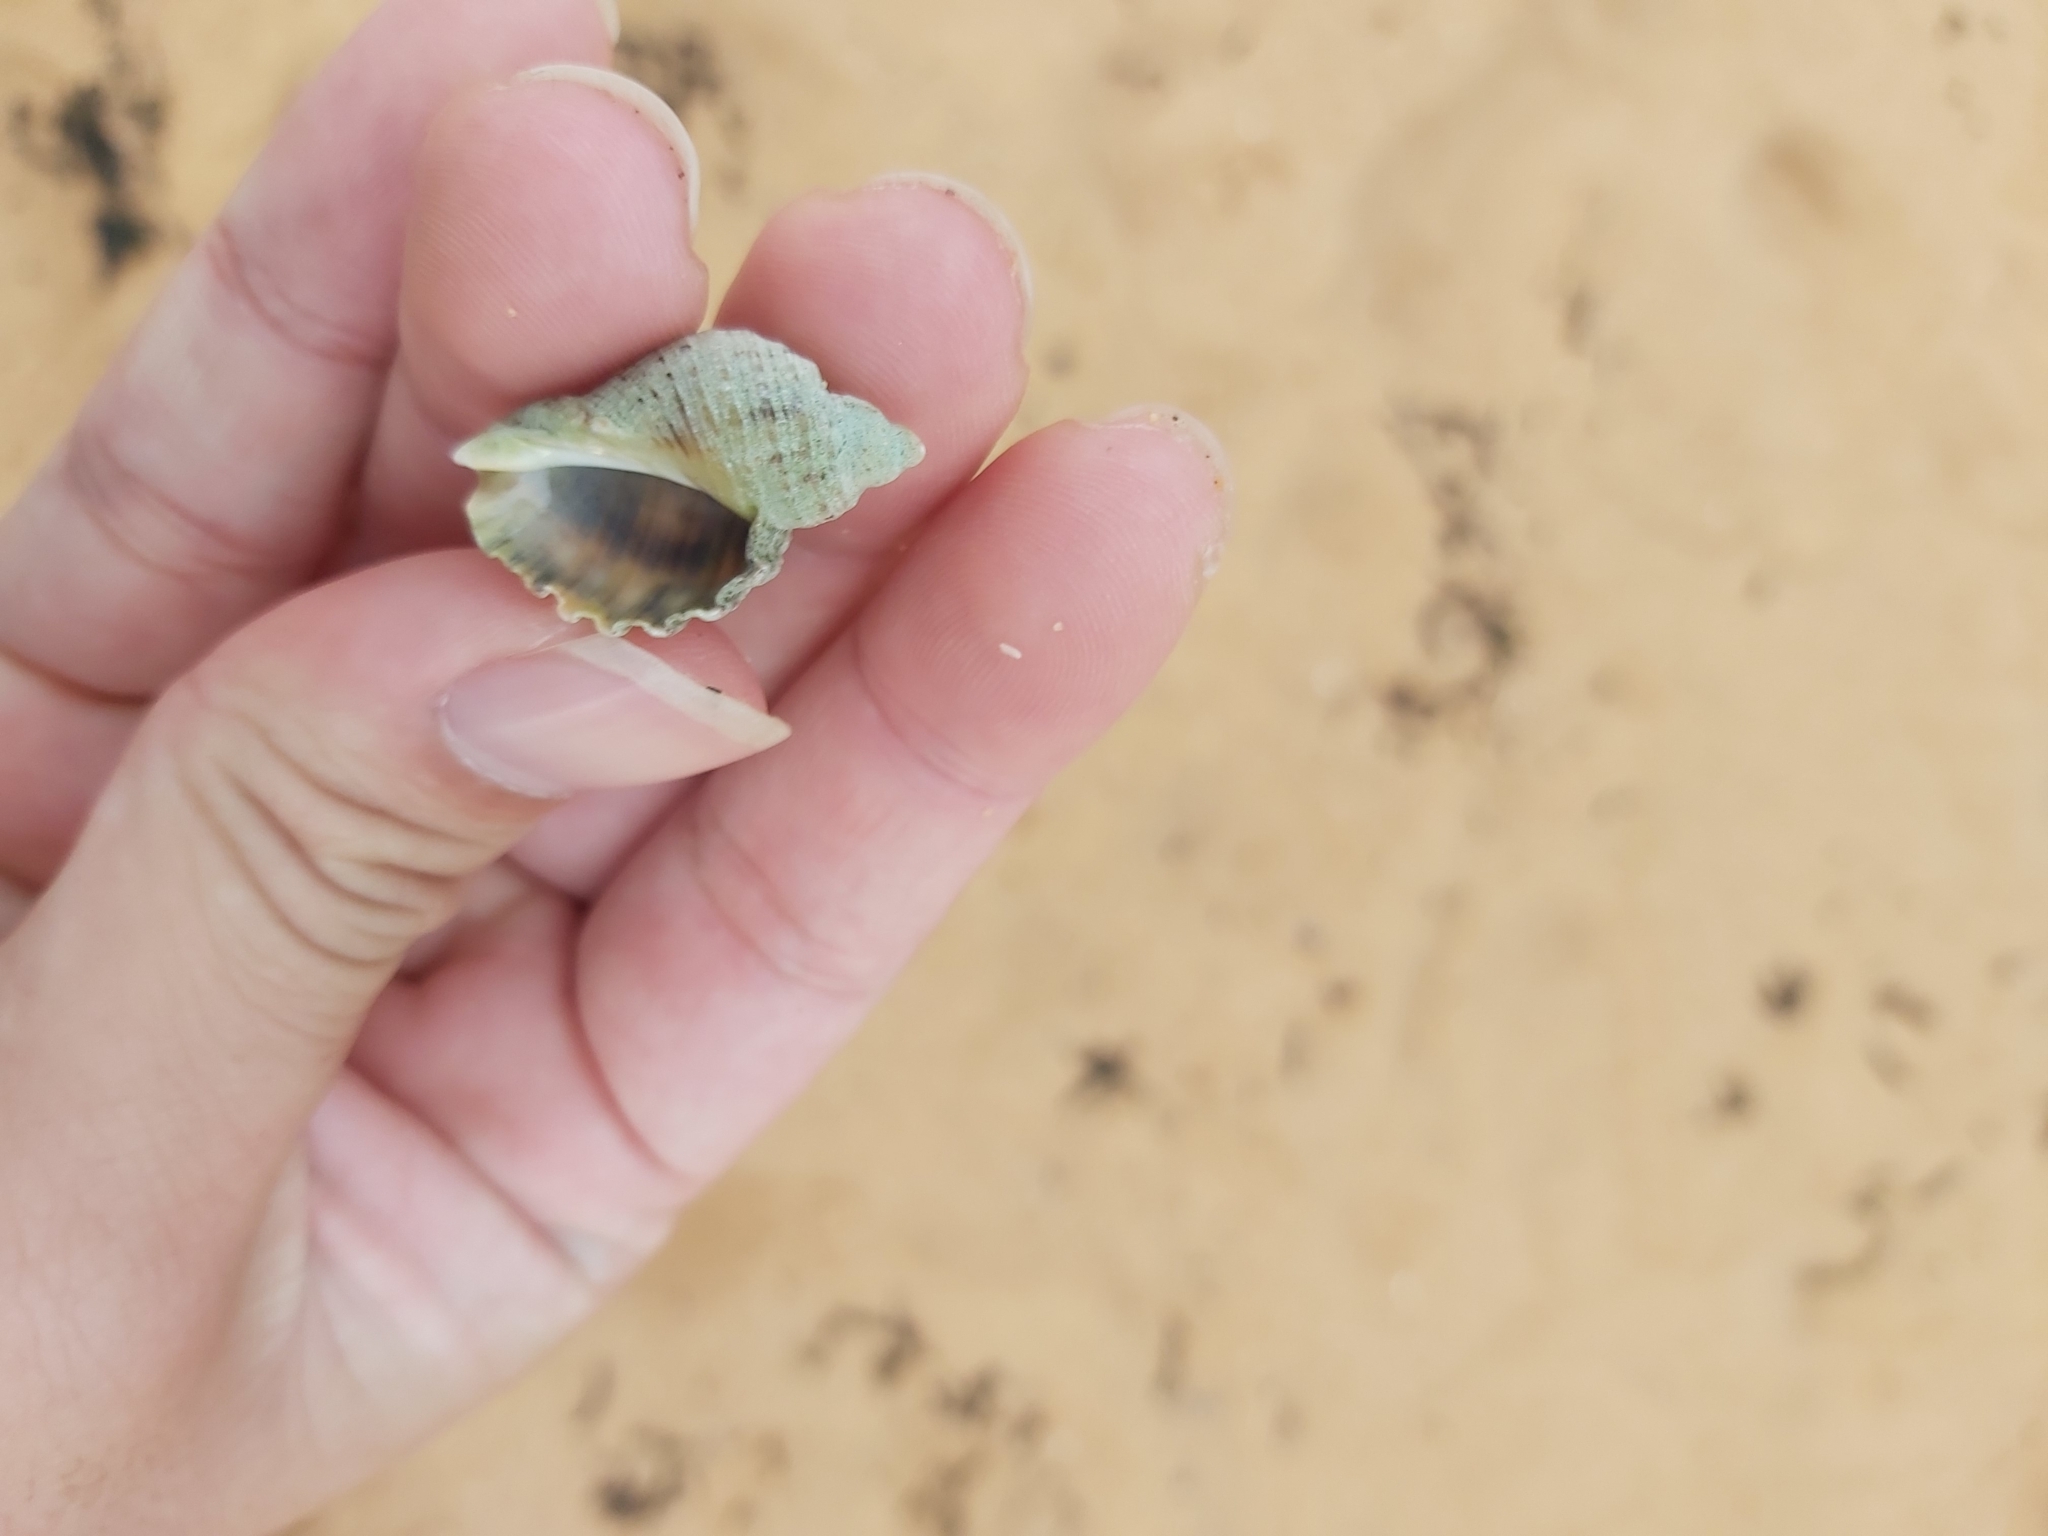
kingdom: Animalia
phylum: Mollusca
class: Gastropoda
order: Neogastropoda
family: Muricidae
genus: Dicathais
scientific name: Dicathais orbita
